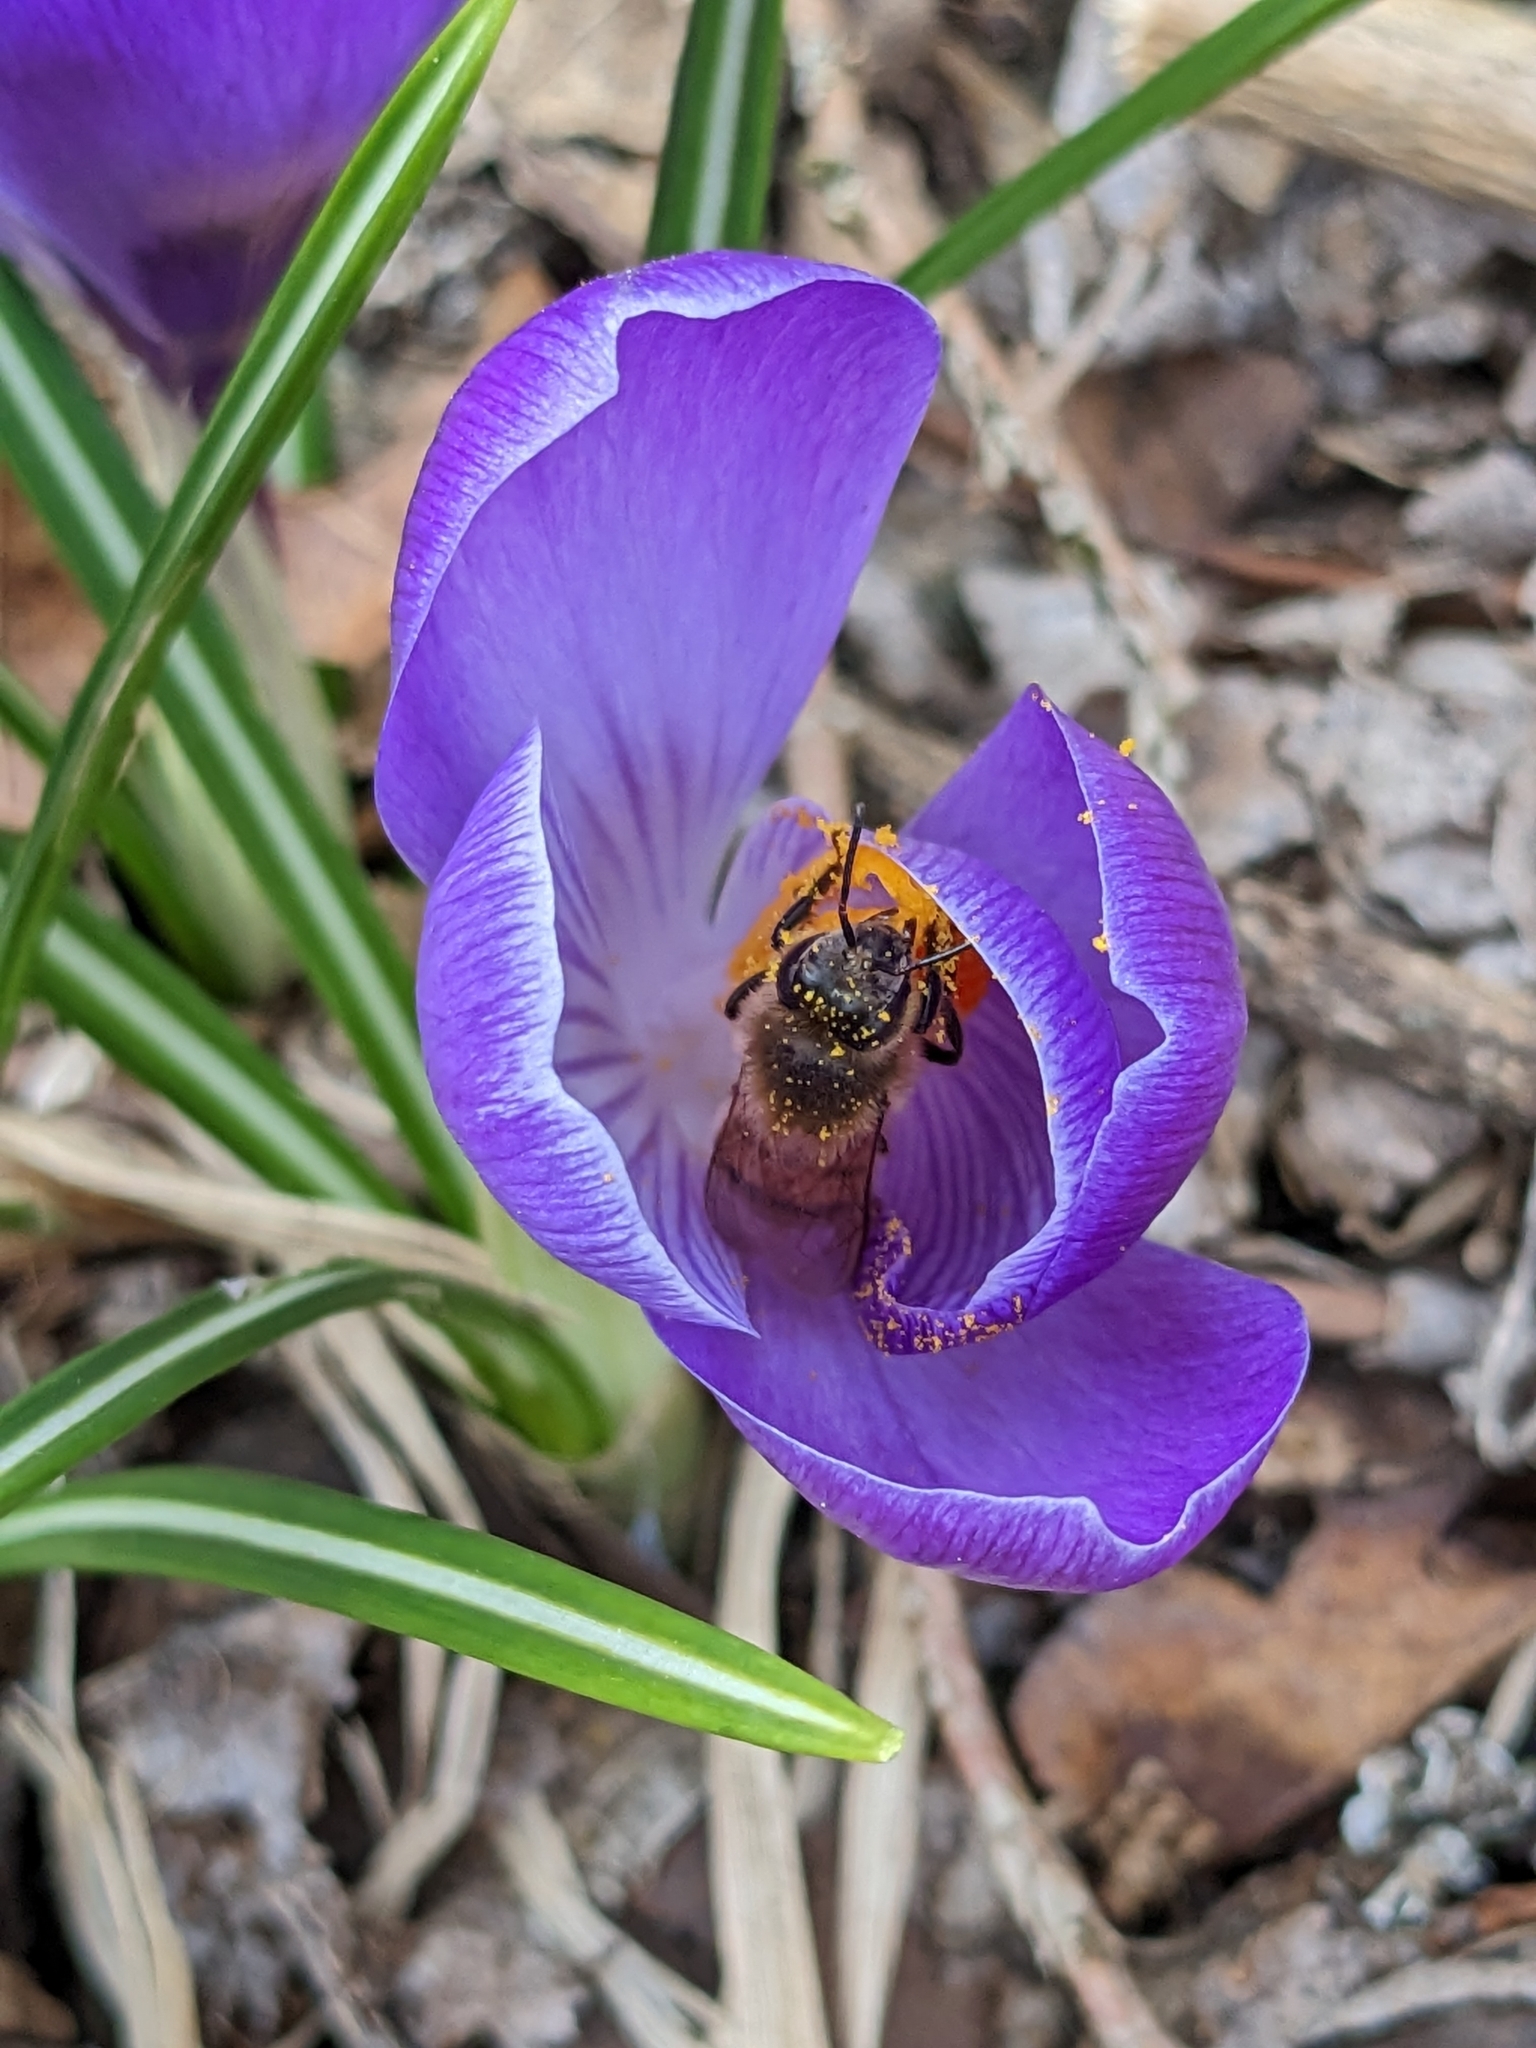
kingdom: Animalia
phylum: Arthropoda
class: Insecta
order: Hymenoptera
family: Apidae
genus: Apis
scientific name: Apis mellifera
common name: Honey bee
